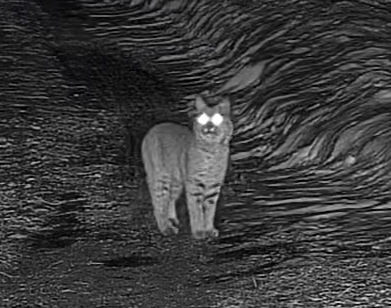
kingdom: Animalia
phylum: Chordata
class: Mammalia
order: Carnivora
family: Felidae
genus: Lynx
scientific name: Lynx rufus
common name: Bobcat
